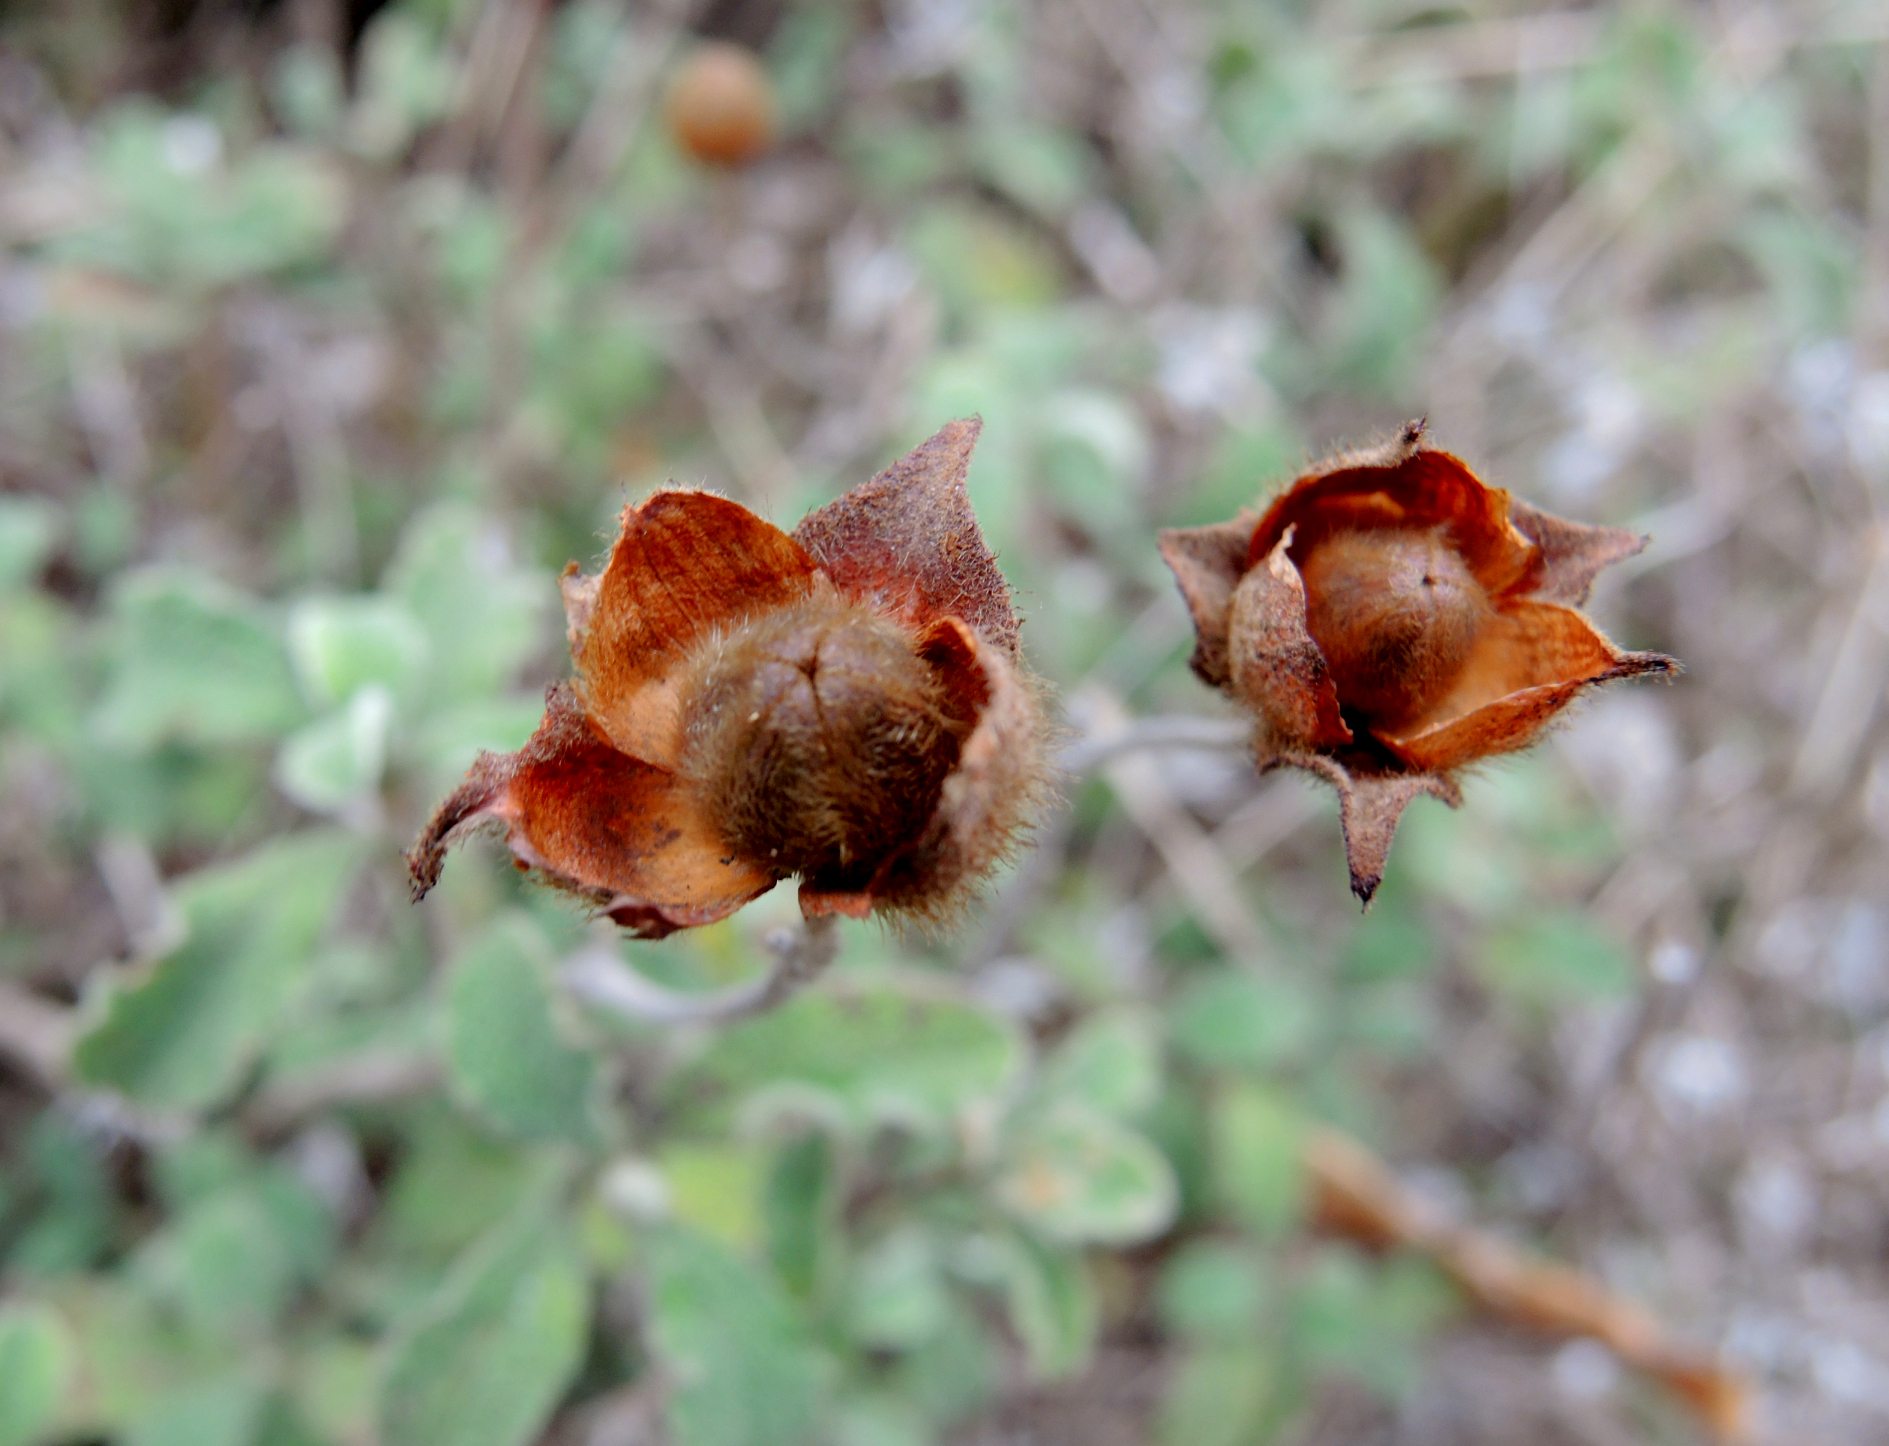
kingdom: Plantae
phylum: Tracheophyta
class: Magnoliopsida
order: Malvales
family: Cistaceae
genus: Cistus
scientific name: Cistus creticus
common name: Cretan rockrose
